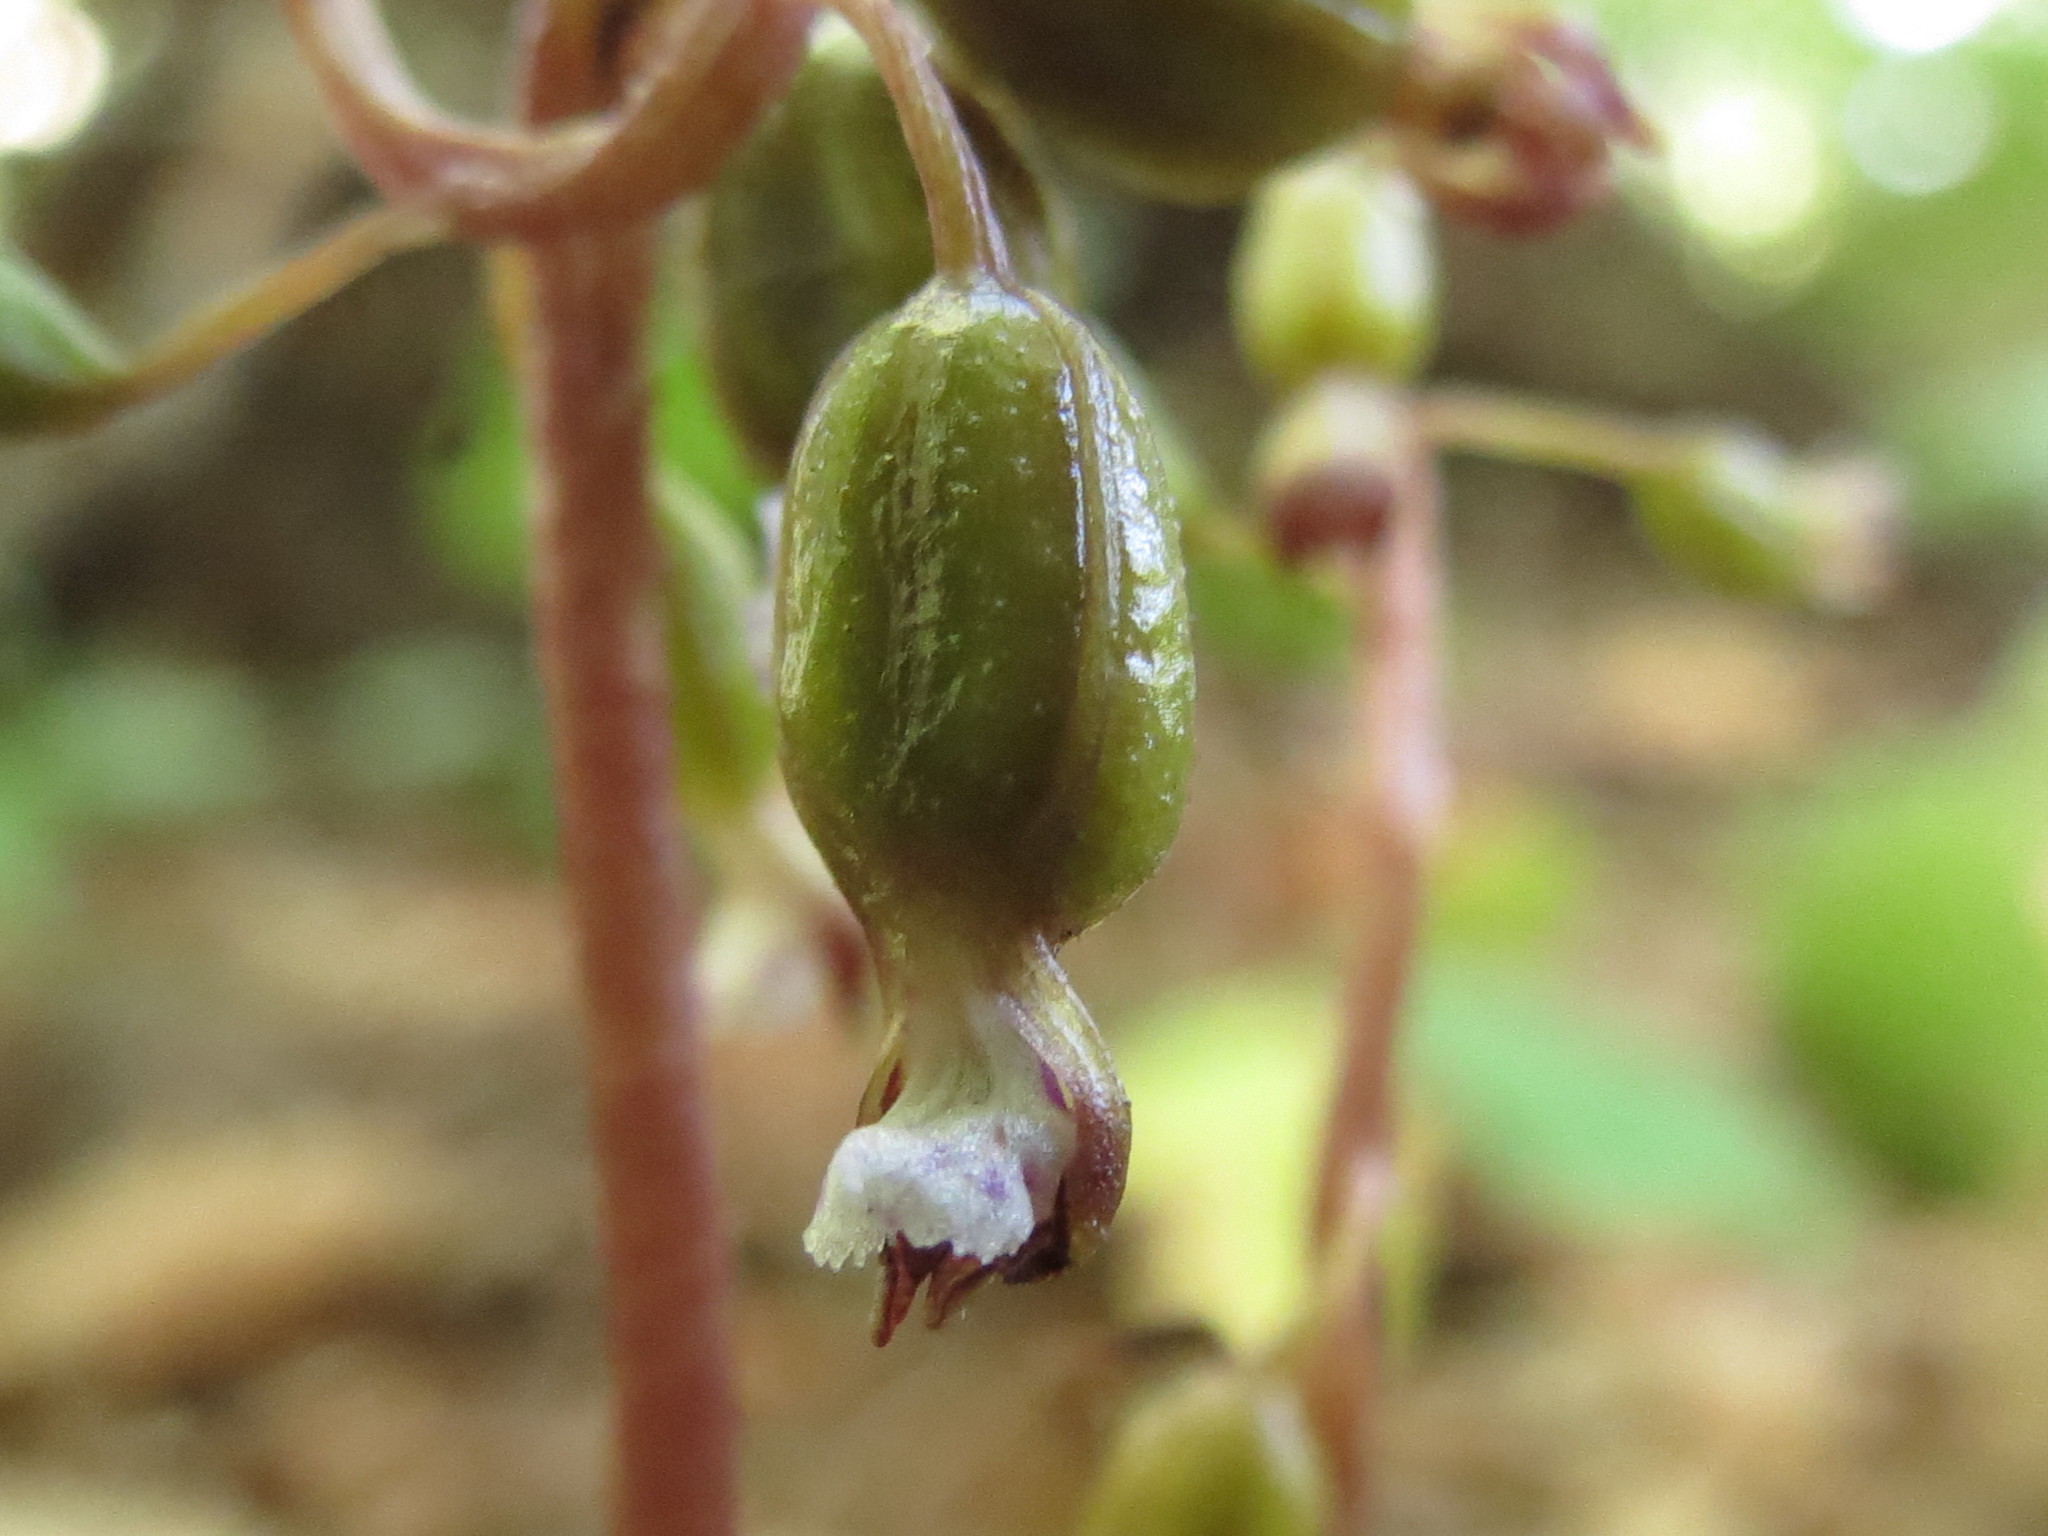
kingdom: Plantae
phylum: Tracheophyta
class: Liliopsida
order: Asparagales
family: Orchidaceae
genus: Corallorhiza
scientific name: Corallorhiza odontorhiza
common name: Autumn coralroot
